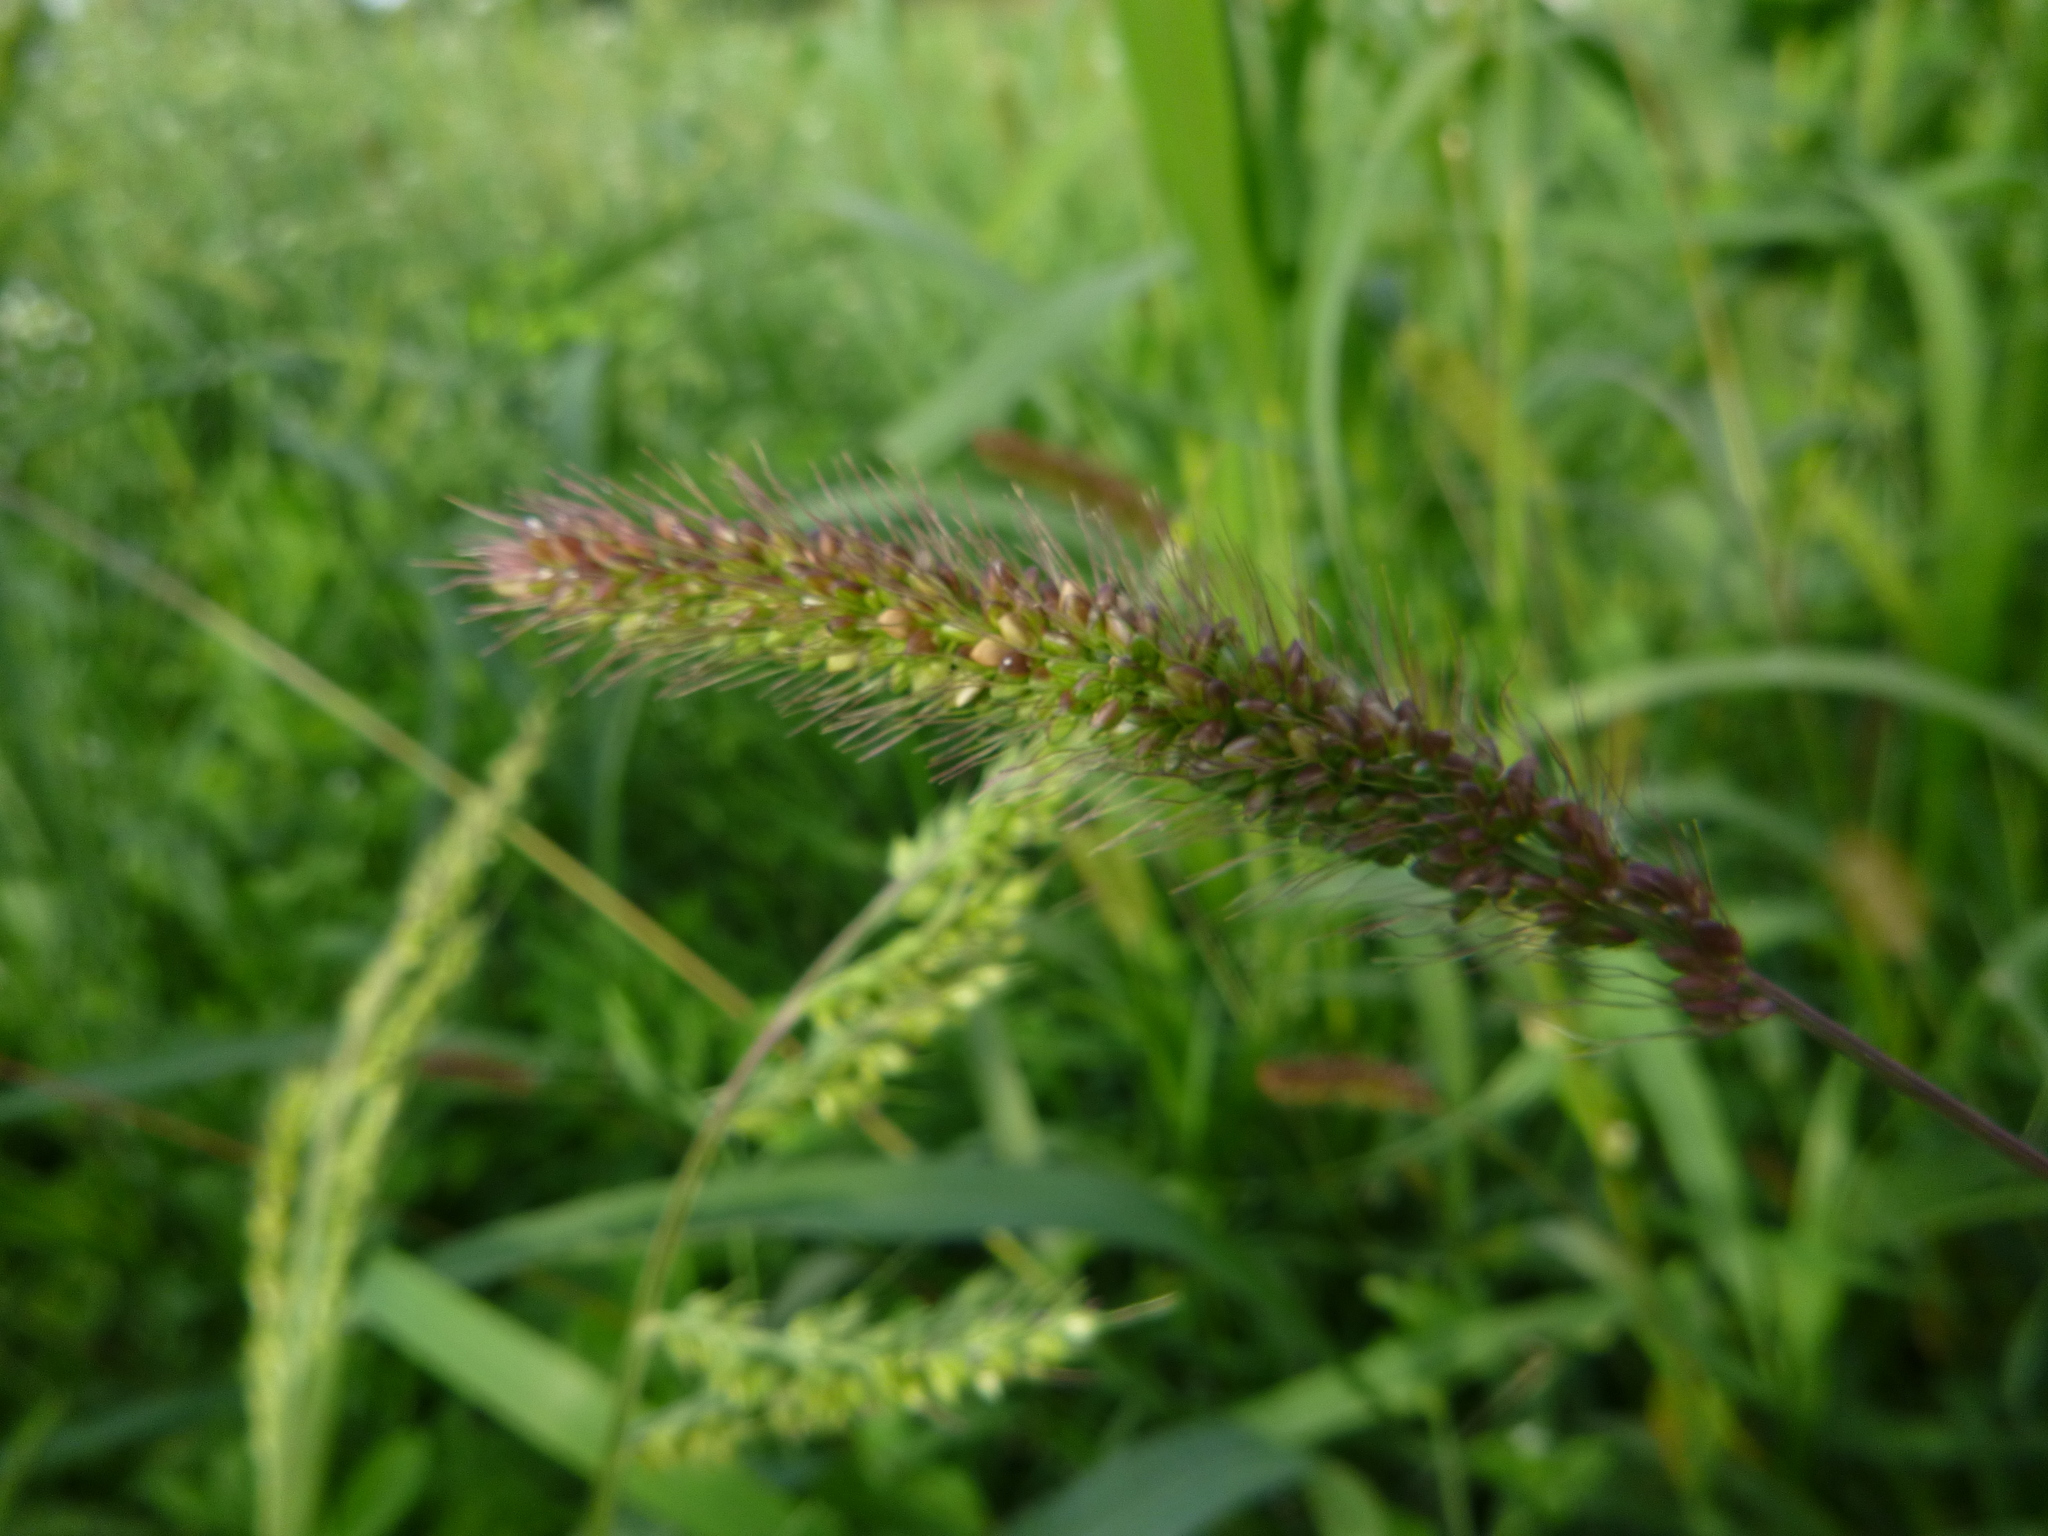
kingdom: Plantae
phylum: Tracheophyta
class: Liliopsida
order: Poales
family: Poaceae
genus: Setaria
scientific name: Setaria viridis
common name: Green bristlegrass
